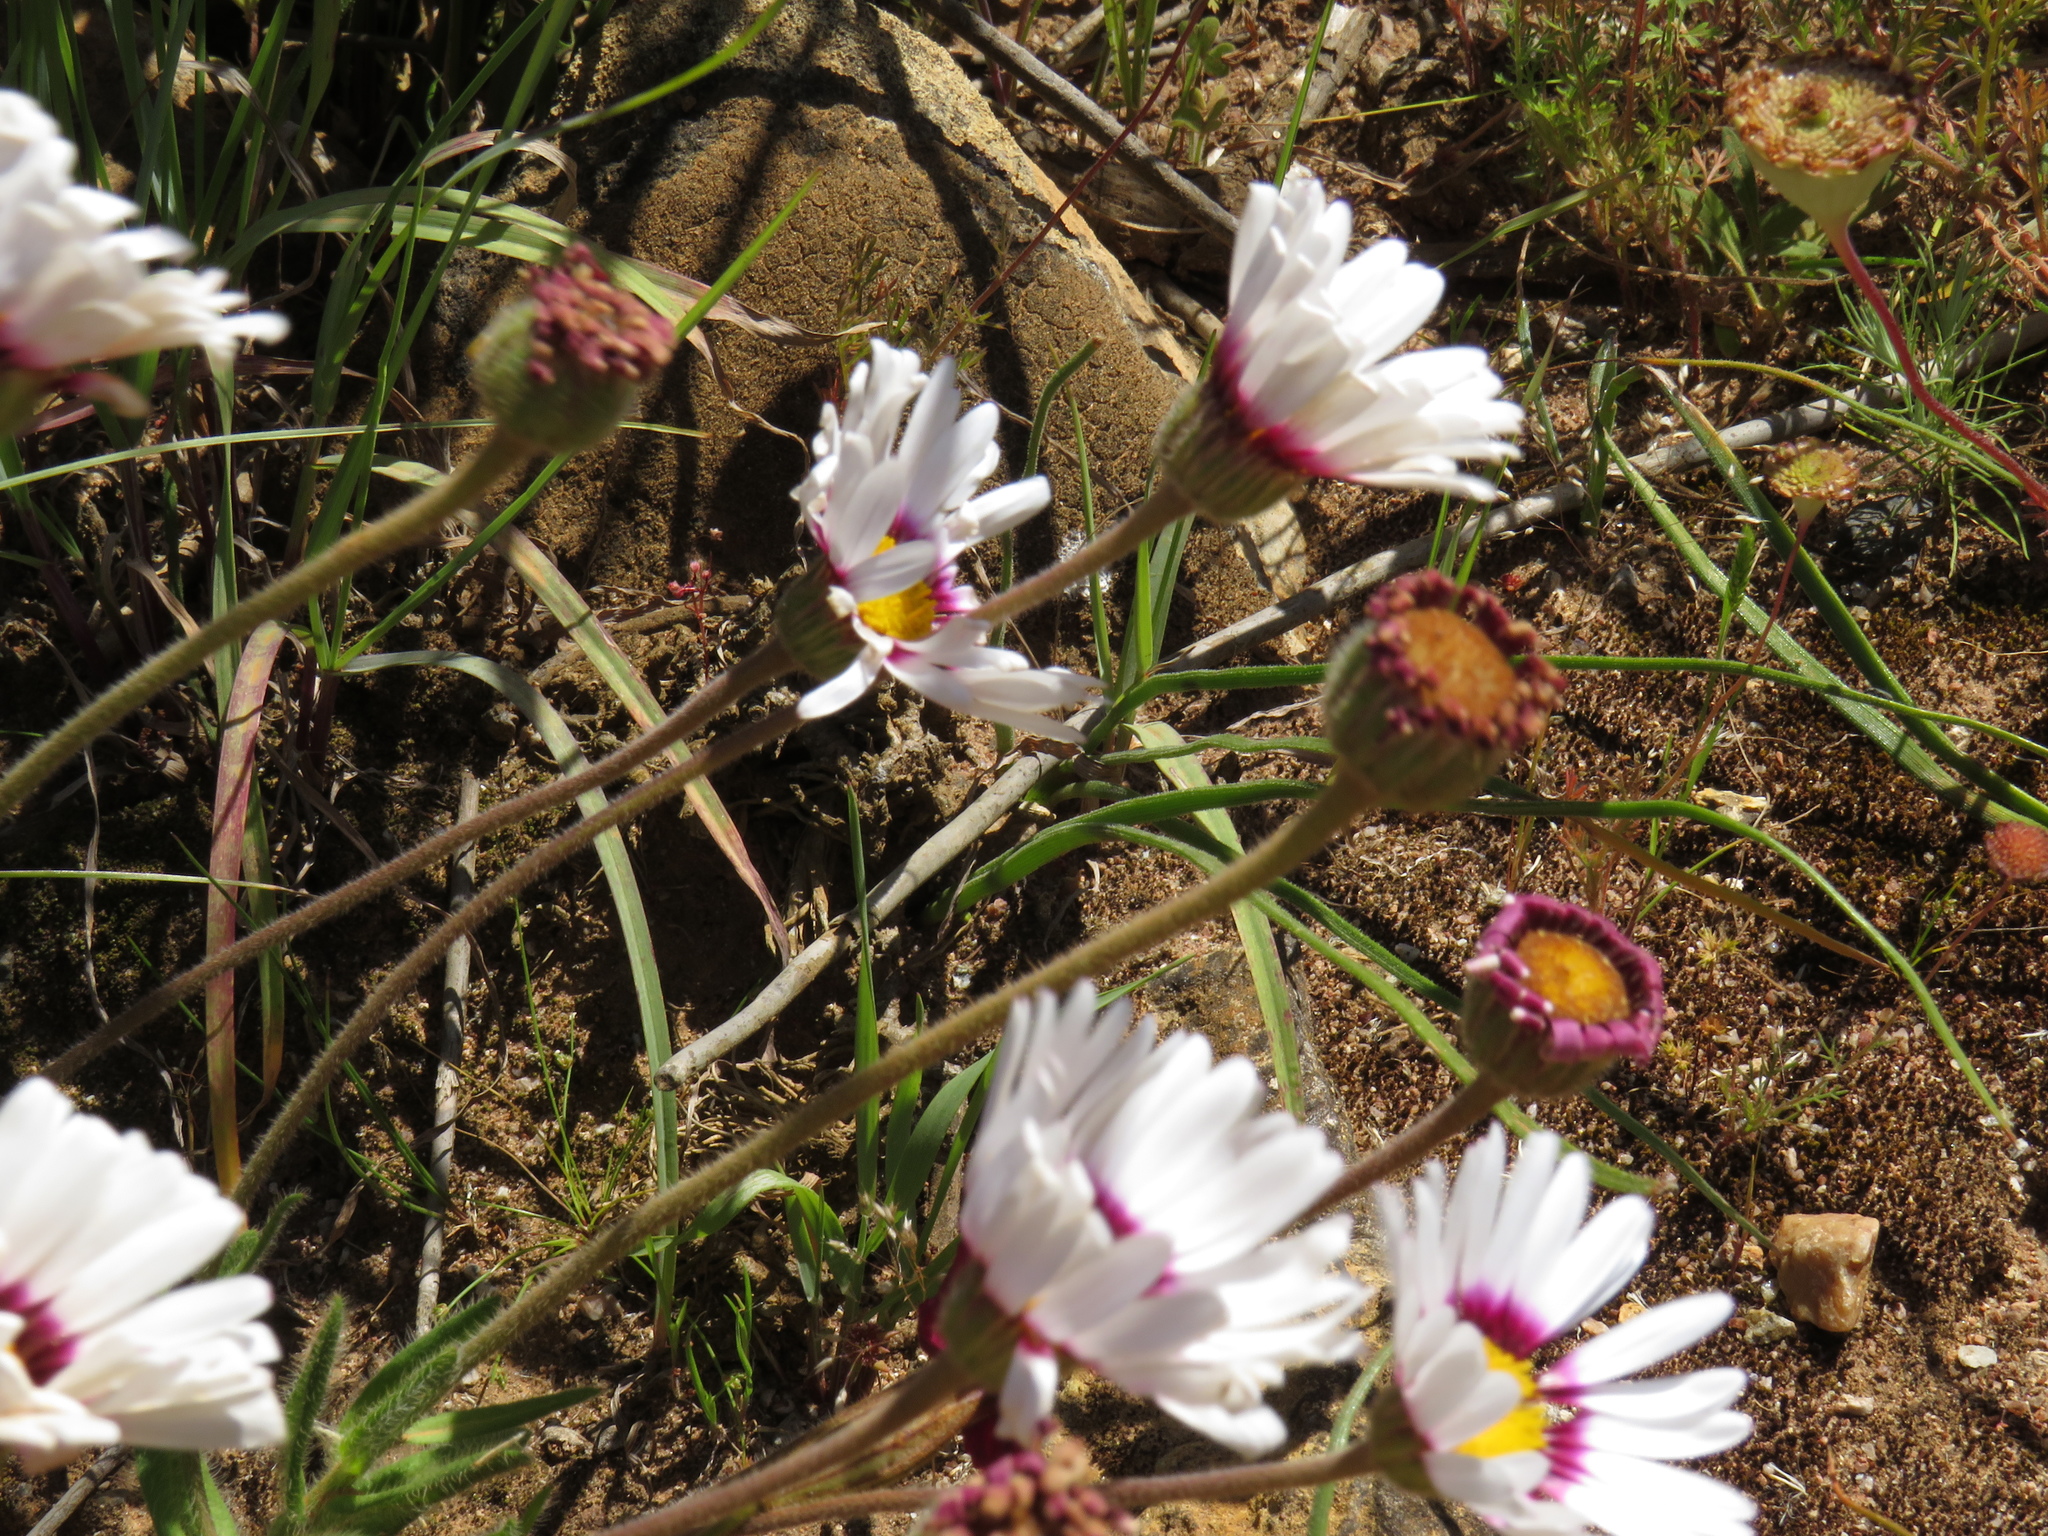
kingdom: Plantae
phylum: Tracheophyta
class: Magnoliopsida
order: Asterales
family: Asteraceae
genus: Felicia
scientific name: Felicia elongata
